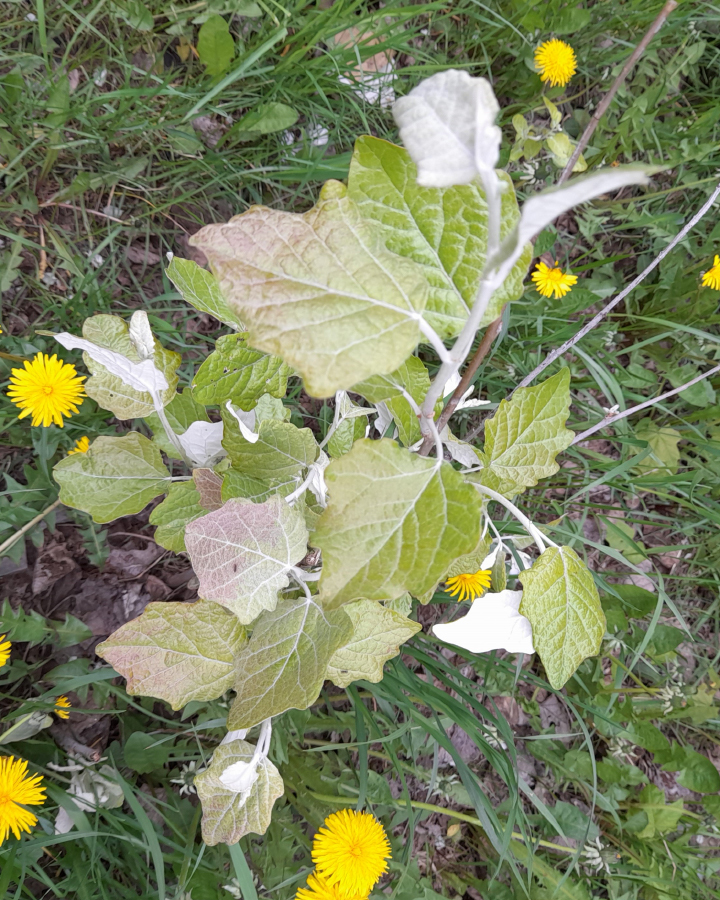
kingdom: Plantae
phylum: Tracheophyta
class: Magnoliopsida
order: Malpighiales
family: Salicaceae
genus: Populus
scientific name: Populus alba
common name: White poplar
